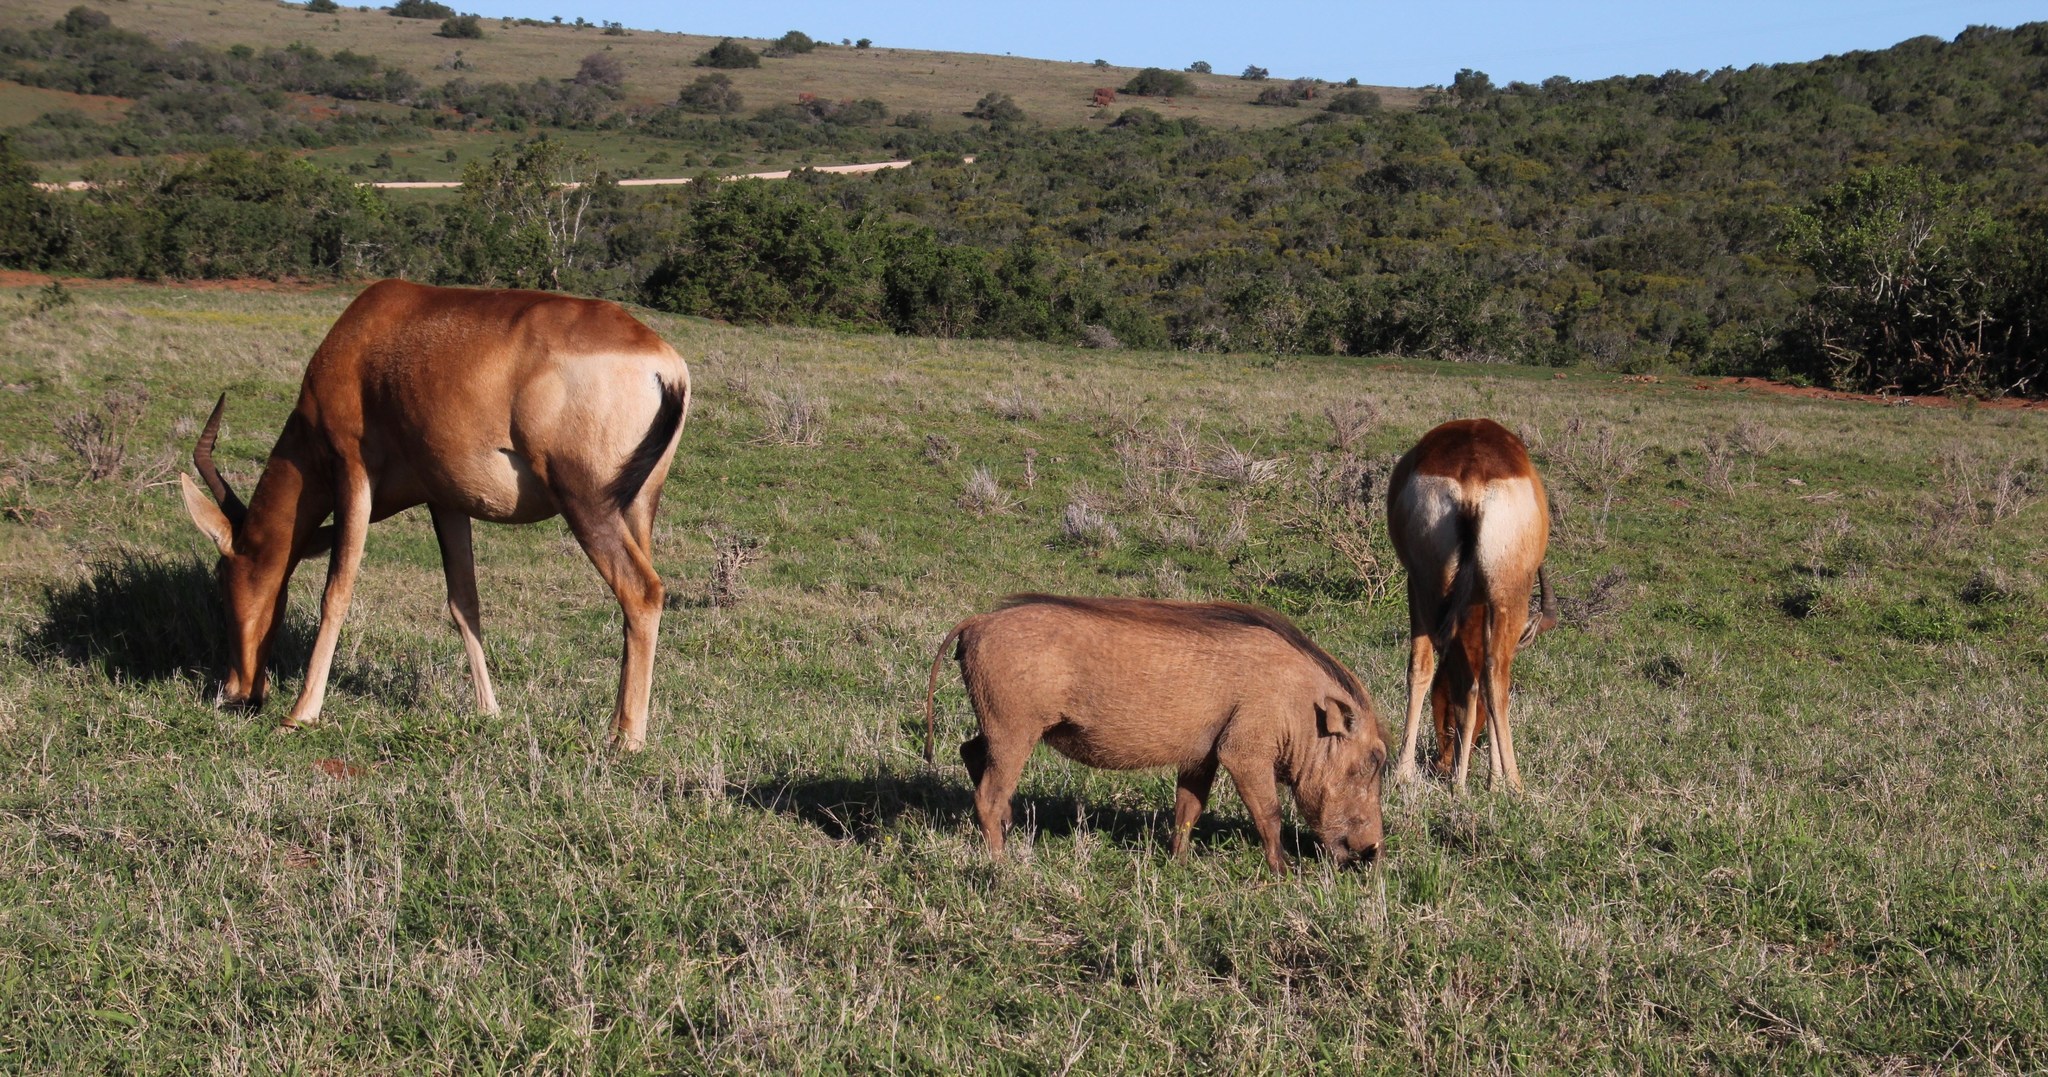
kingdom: Animalia
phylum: Chordata
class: Mammalia
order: Artiodactyla
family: Bovidae
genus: Alcelaphus
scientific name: Alcelaphus caama
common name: Red hartebeest
